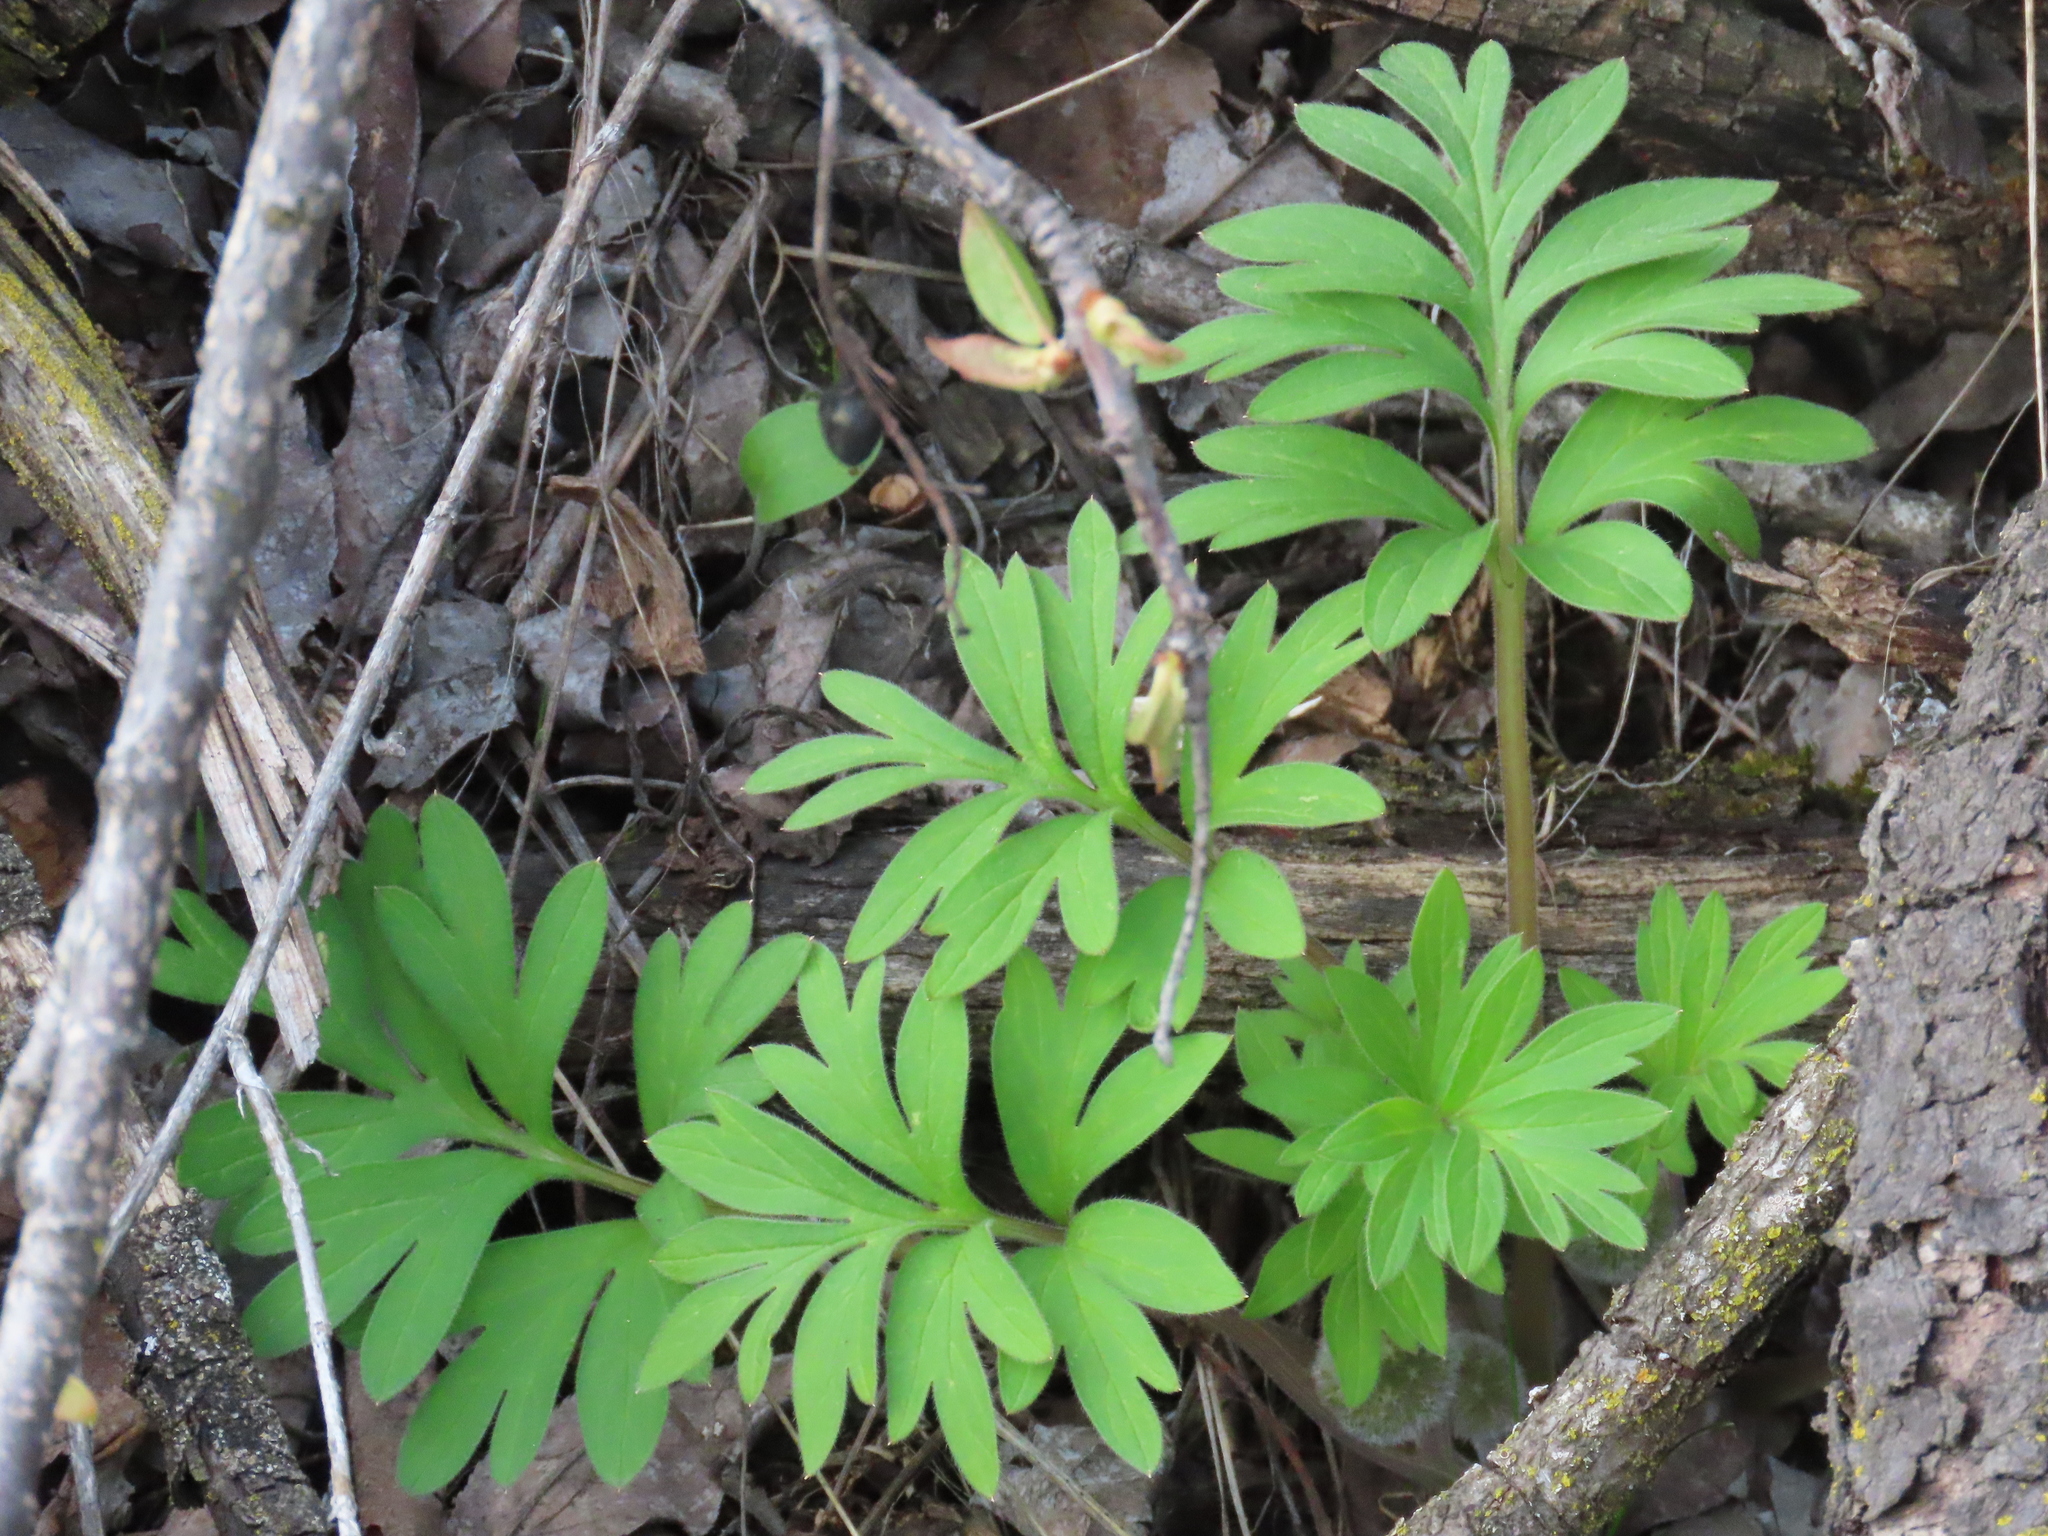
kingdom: Plantae
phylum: Tracheophyta
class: Magnoliopsida
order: Boraginales
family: Hydrophyllaceae
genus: Hydrophyllum
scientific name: Hydrophyllum capitatum
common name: Woollen-breeches
